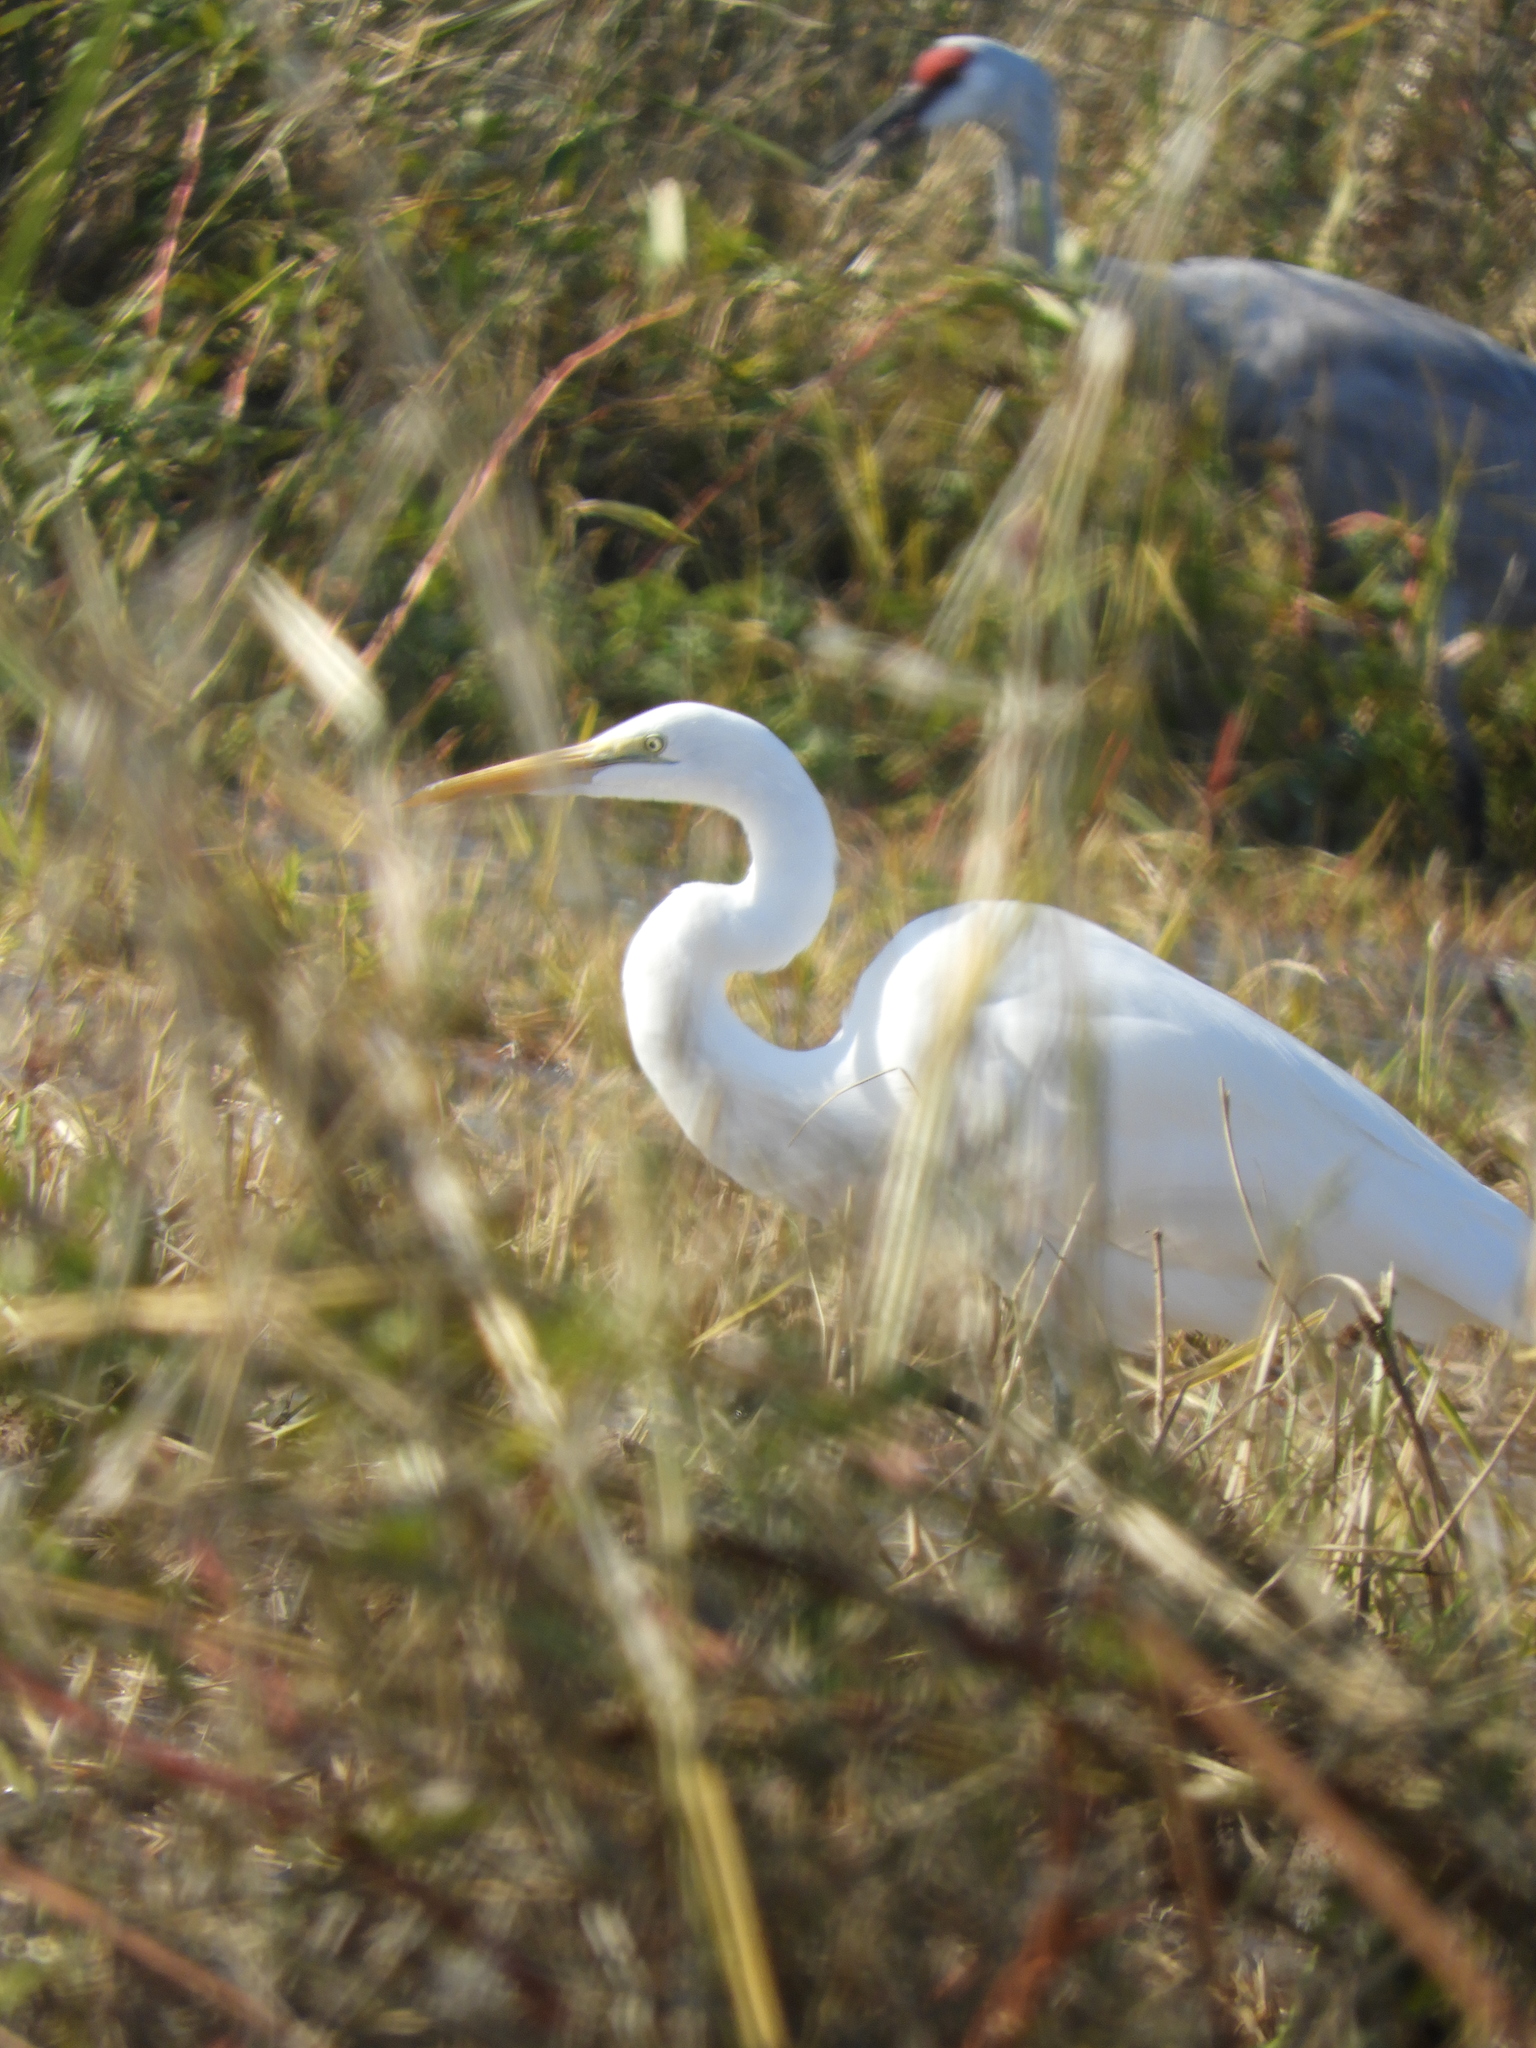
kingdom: Animalia
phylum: Chordata
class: Aves
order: Pelecaniformes
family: Ardeidae
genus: Ardea
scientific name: Ardea alba
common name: Great egret
